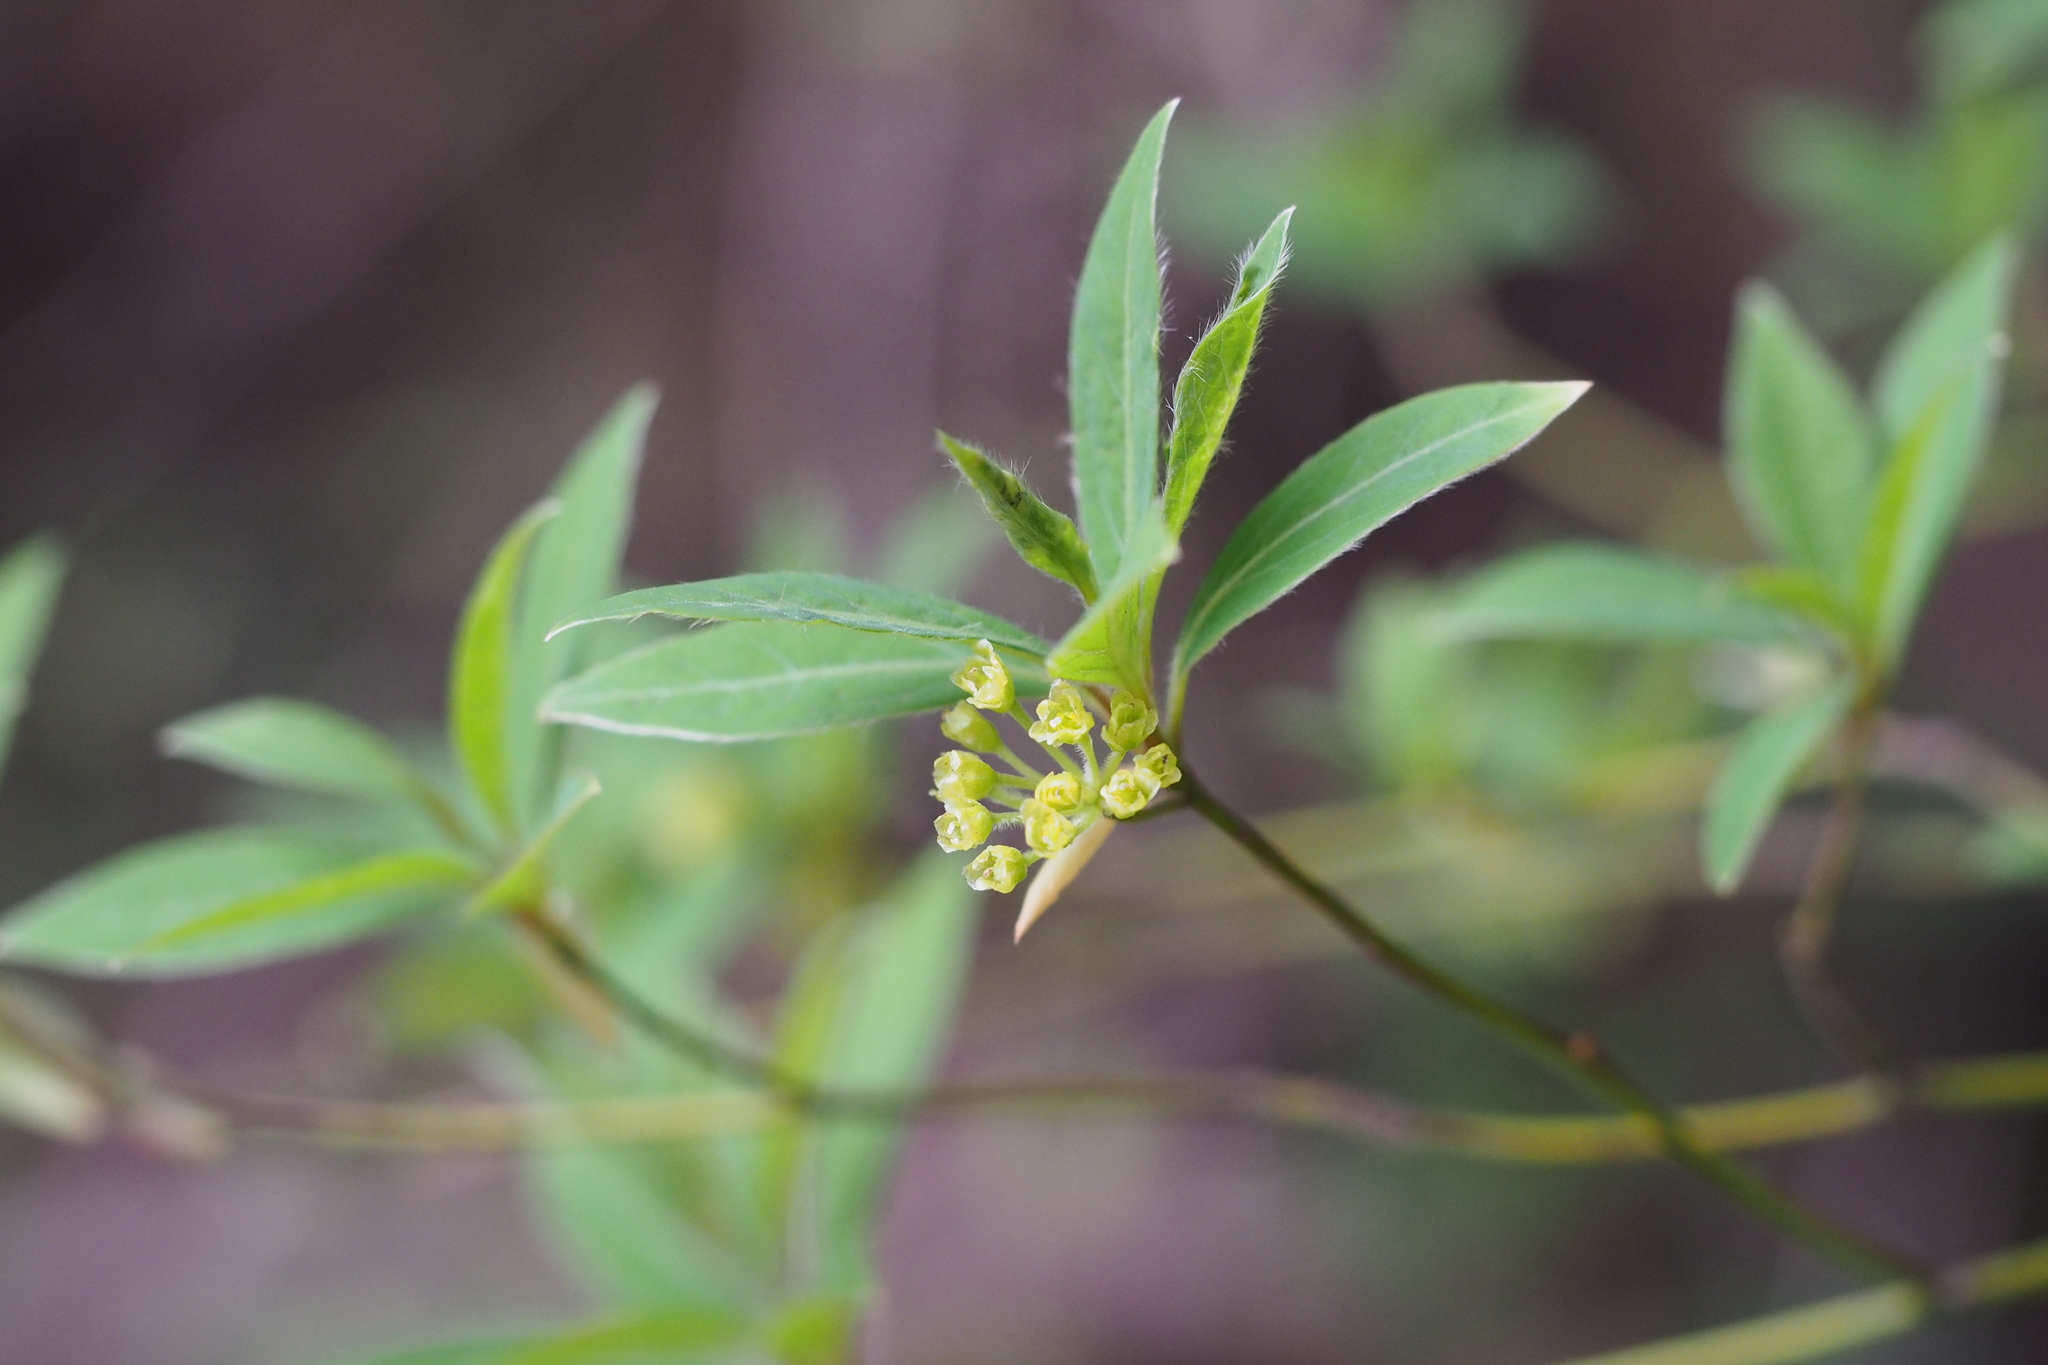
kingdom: Plantae
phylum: Tracheophyta
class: Magnoliopsida
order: Laurales
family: Lauraceae
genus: Lindera
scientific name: Lindera umbellata
